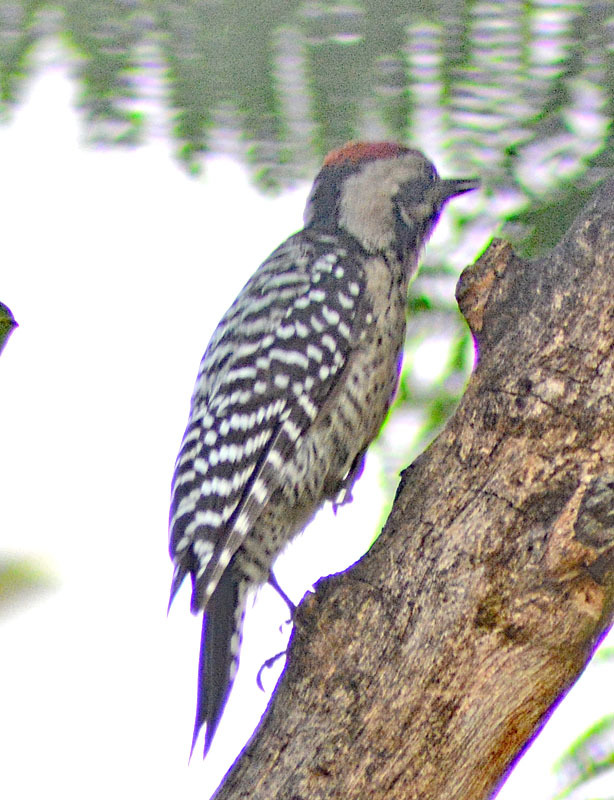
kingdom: Animalia
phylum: Chordata
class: Aves
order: Piciformes
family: Picidae
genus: Dryobates
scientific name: Dryobates scalaris
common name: Ladder-backed woodpecker
